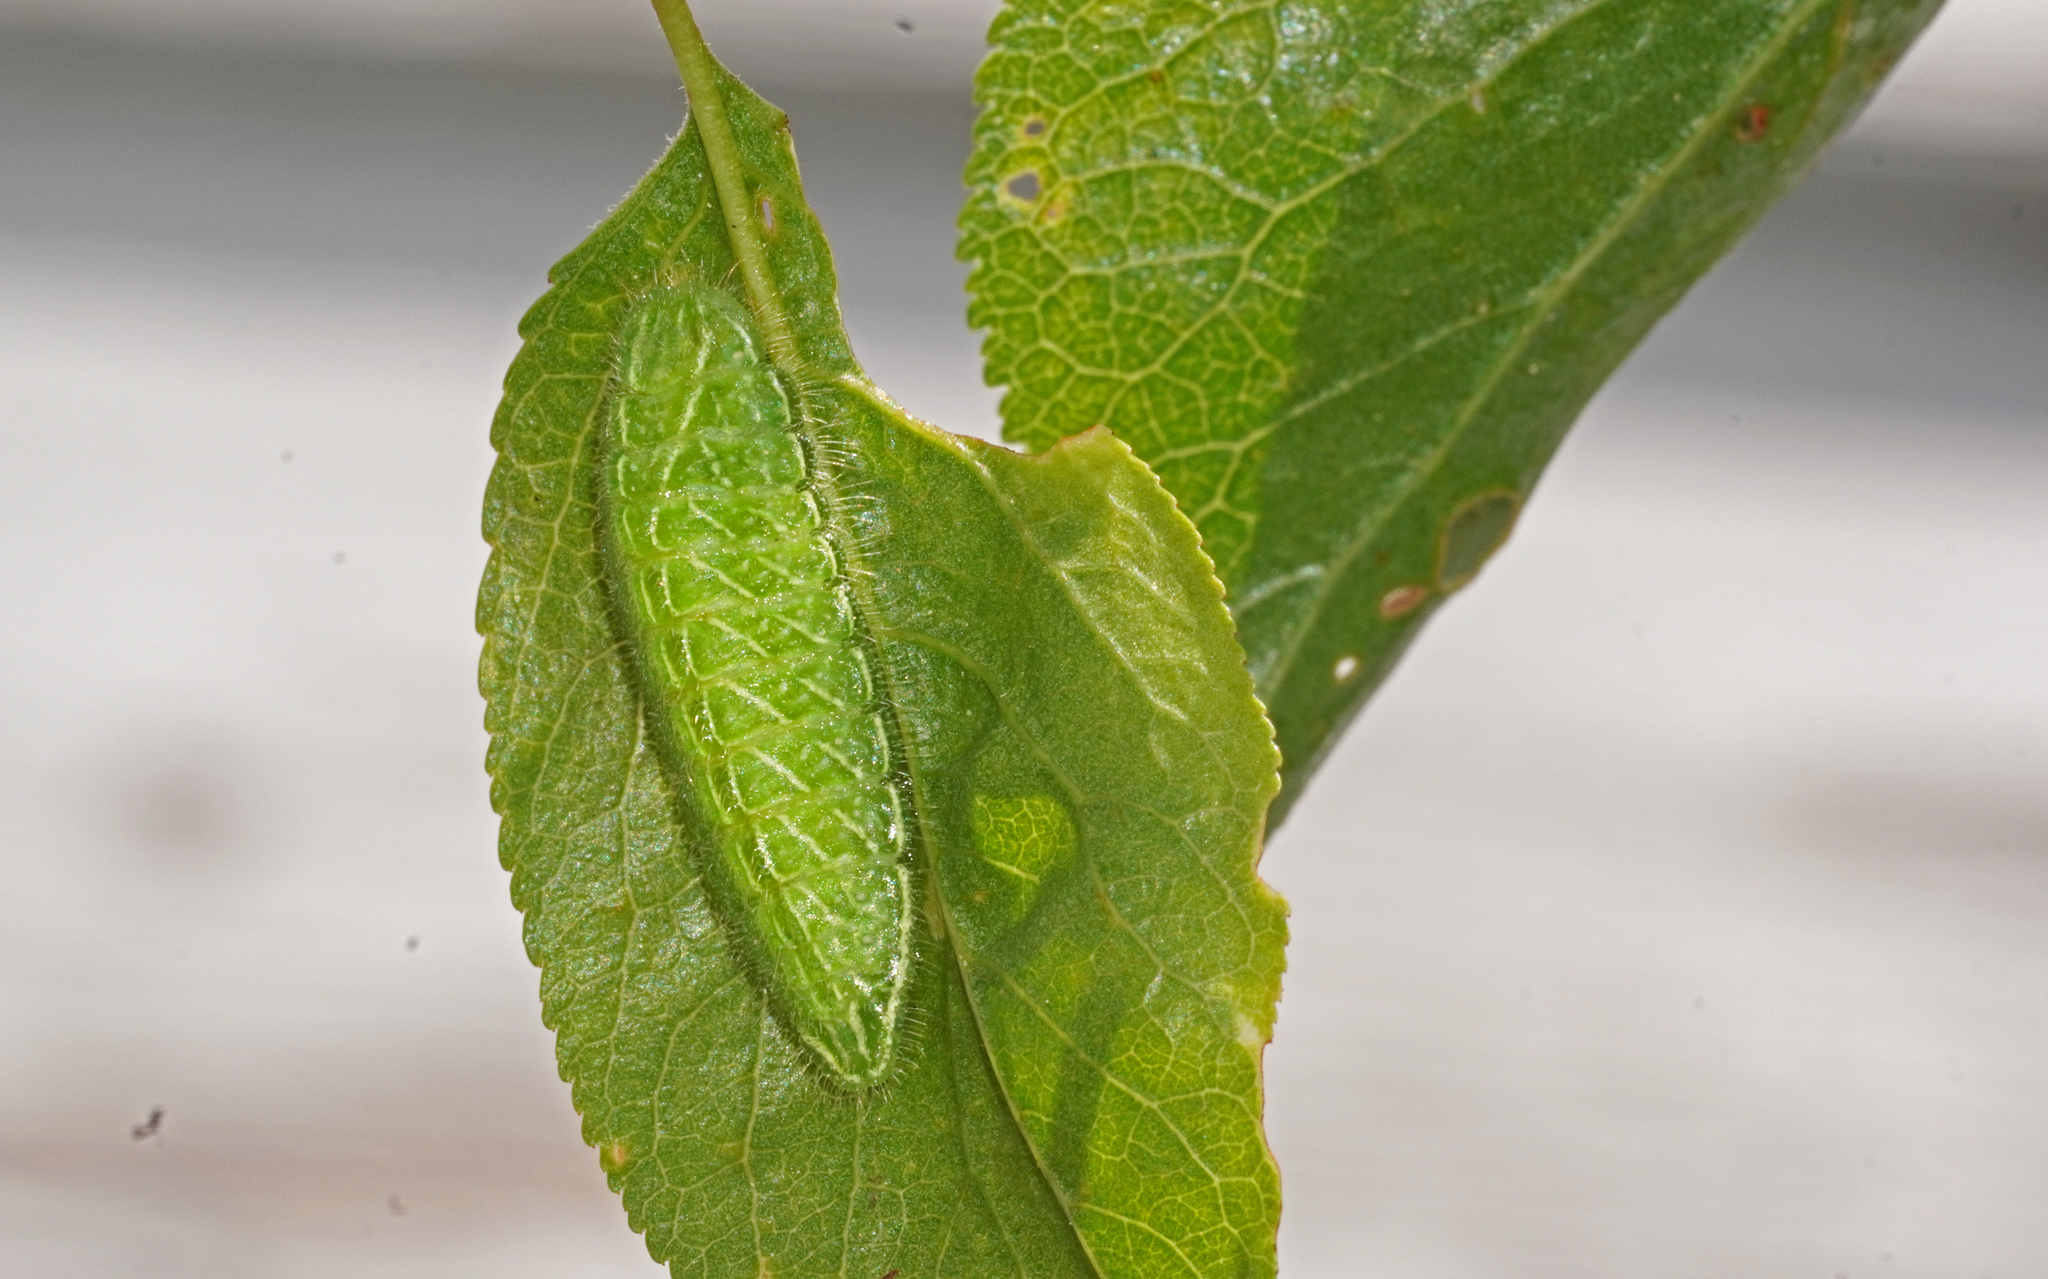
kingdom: Animalia
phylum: Arthropoda
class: Insecta
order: Lepidoptera
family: Lycaenidae
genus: Thecla
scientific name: Thecla betulae
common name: Brown hairstreak
